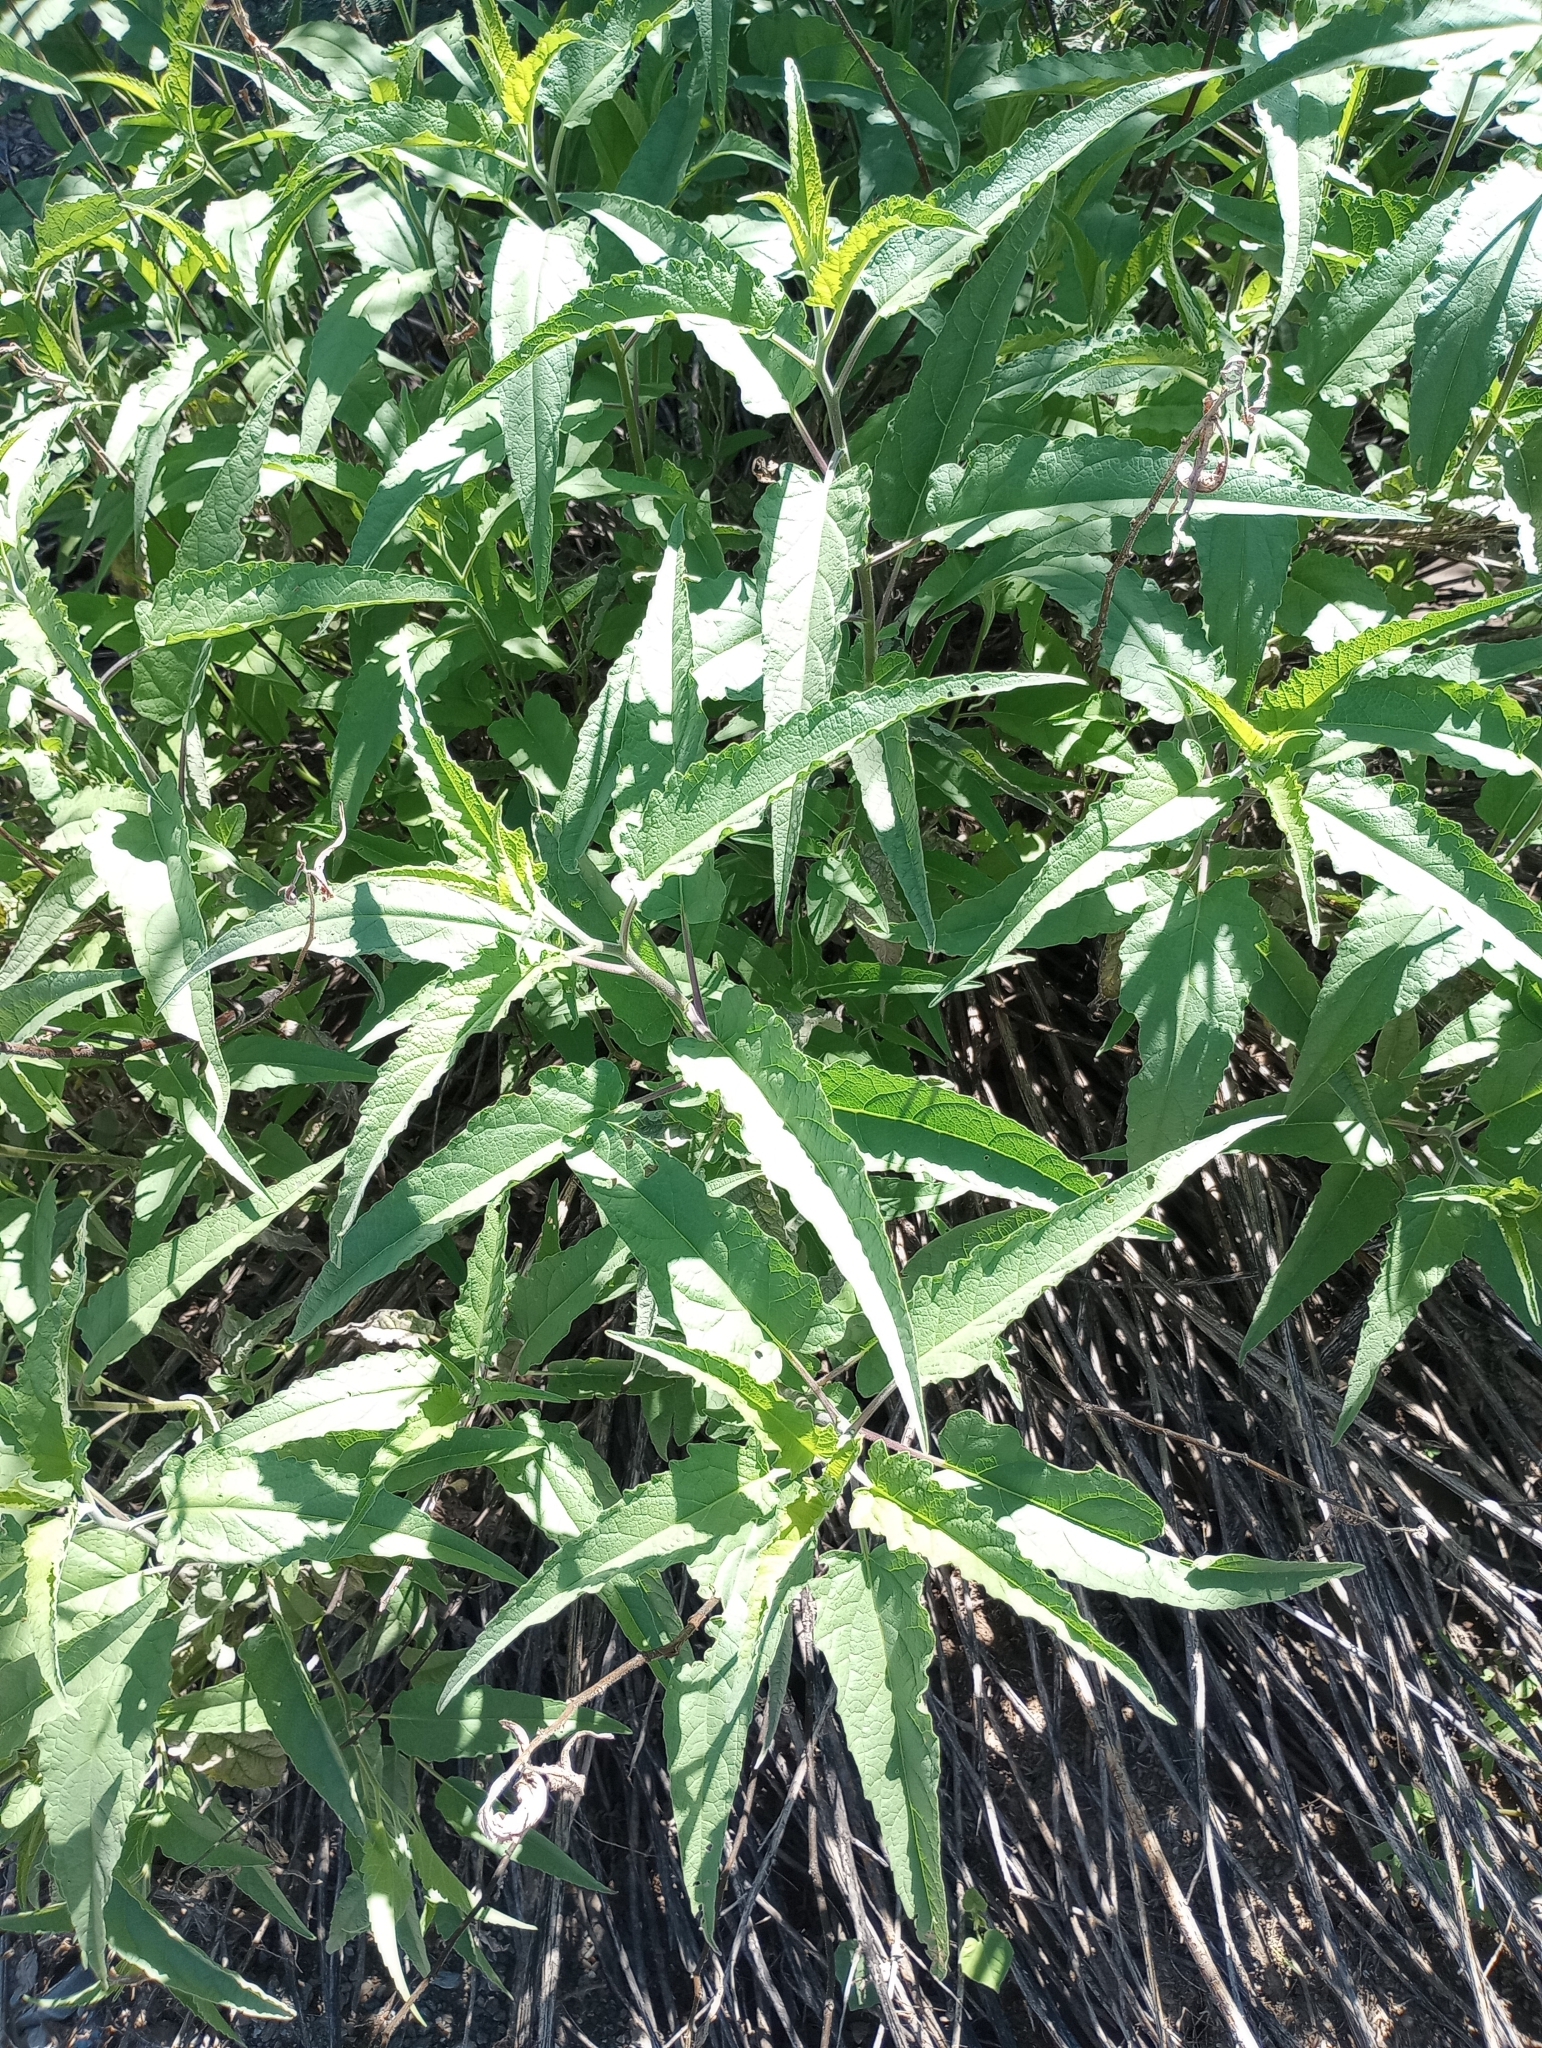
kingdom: Plantae
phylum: Tracheophyta
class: Magnoliopsida
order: Asterales
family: Asteraceae
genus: Ambrosia
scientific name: Ambrosia ambrosioides
